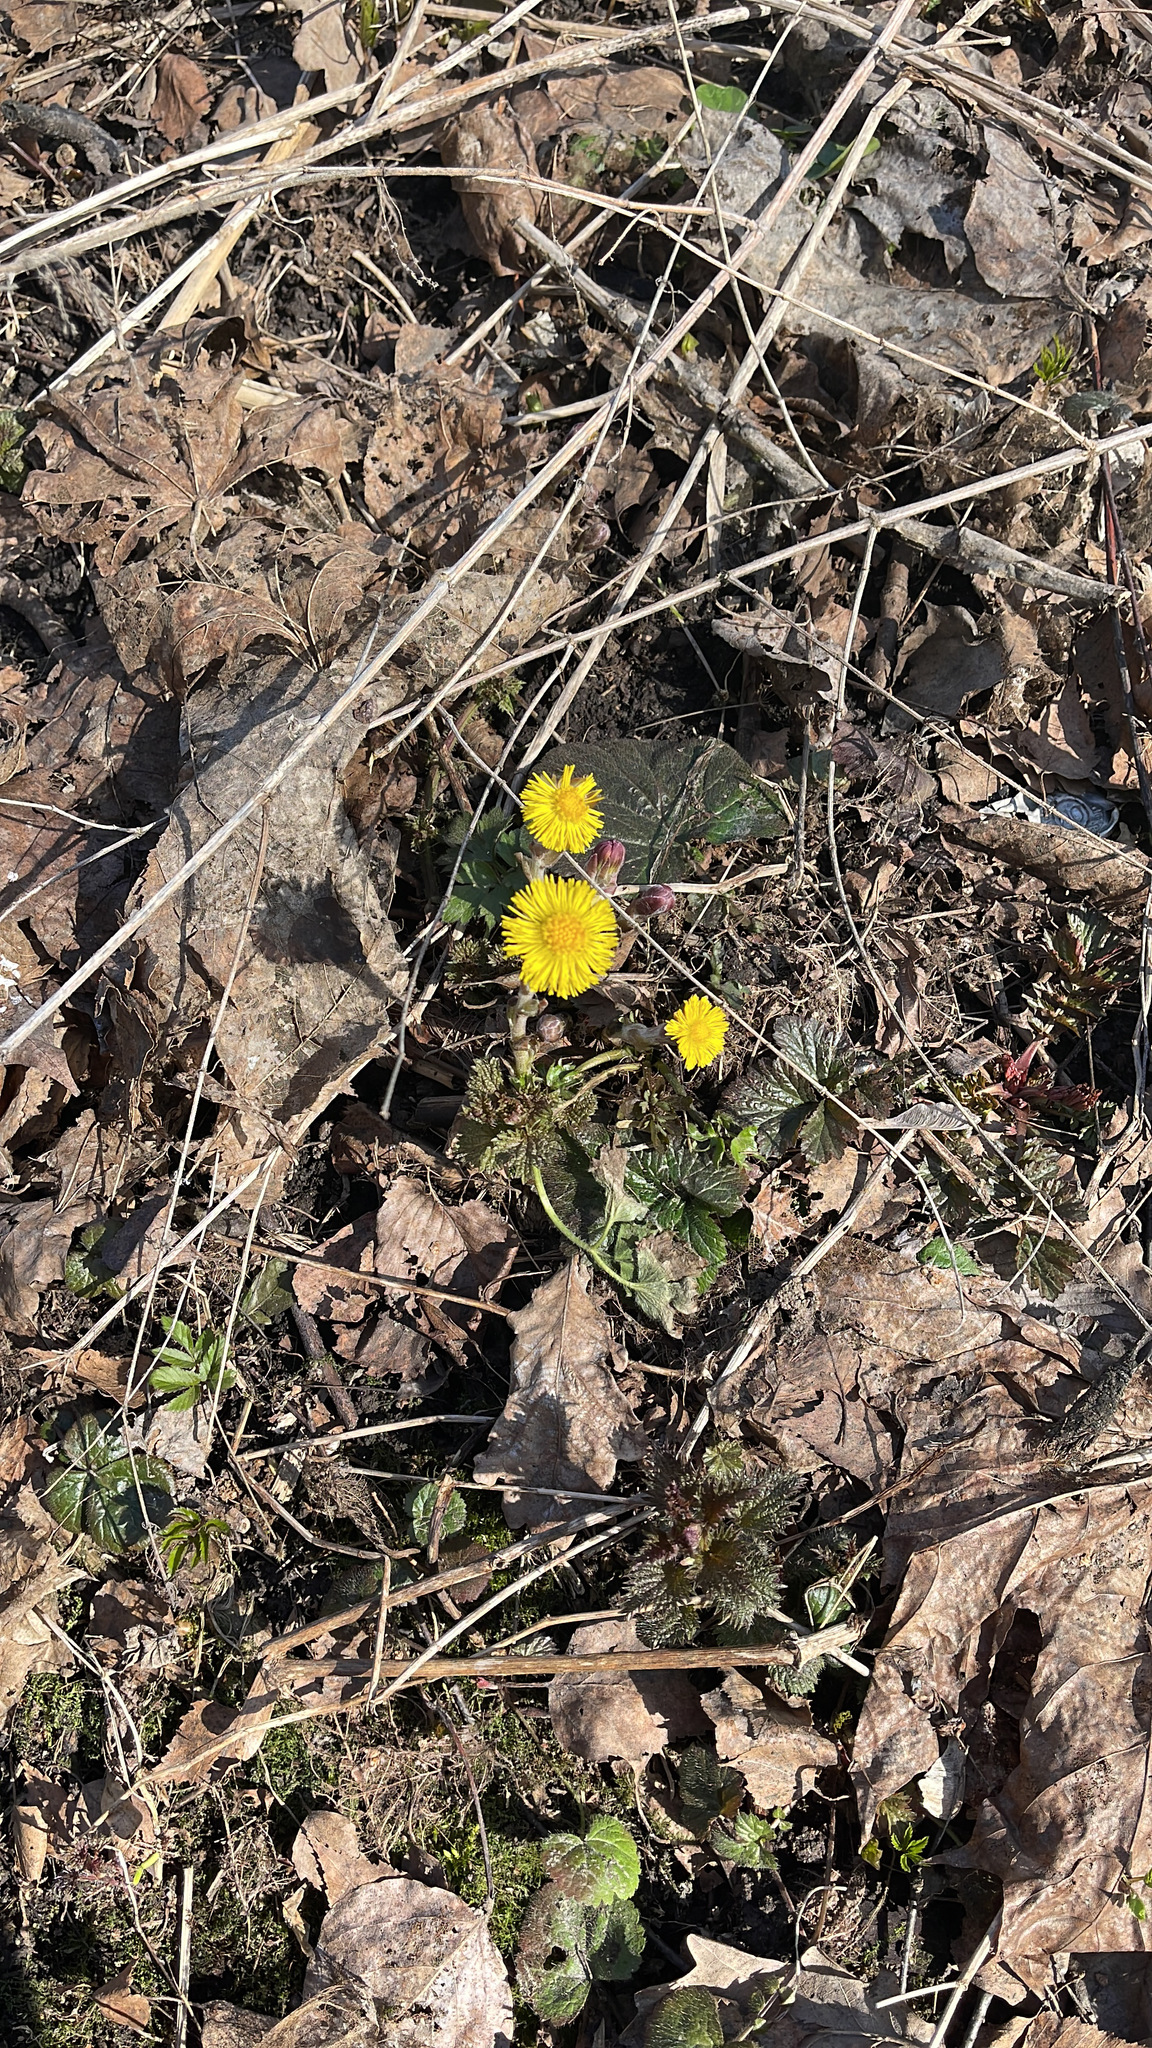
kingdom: Plantae
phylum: Tracheophyta
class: Magnoliopsida
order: Asterales
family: Asteraceae
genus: Tussilago
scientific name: Tussilago farfara
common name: Coltsfoot
